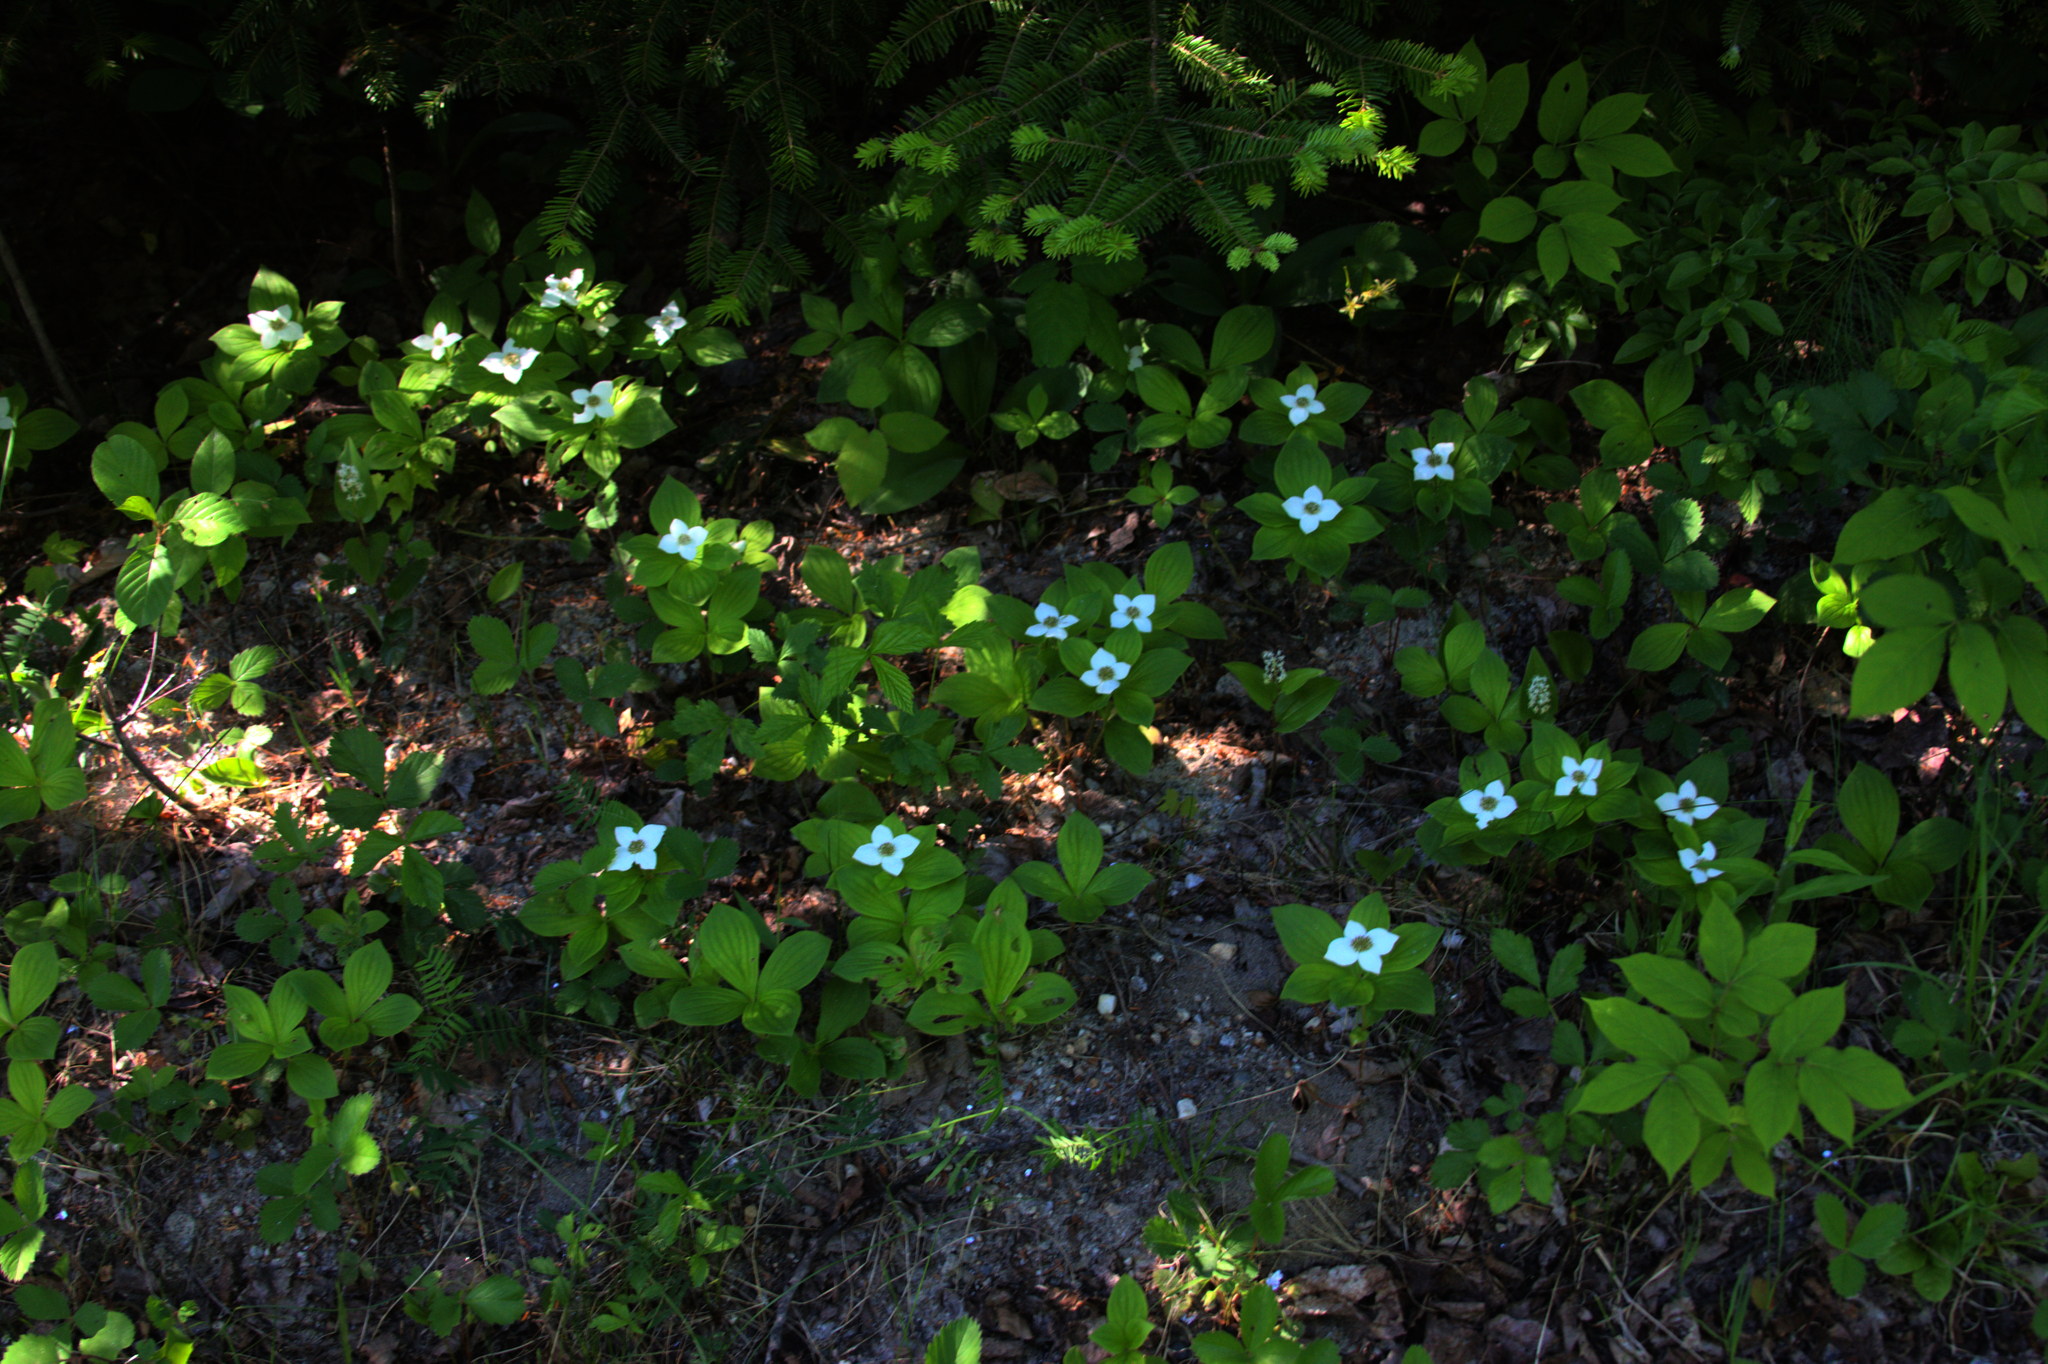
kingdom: Plantae
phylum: Tracheophyta
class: Magnoliopsida
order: Cornales
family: Cornaceae
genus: Cornus
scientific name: Cornus canadensis
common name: Creeping dogwood
